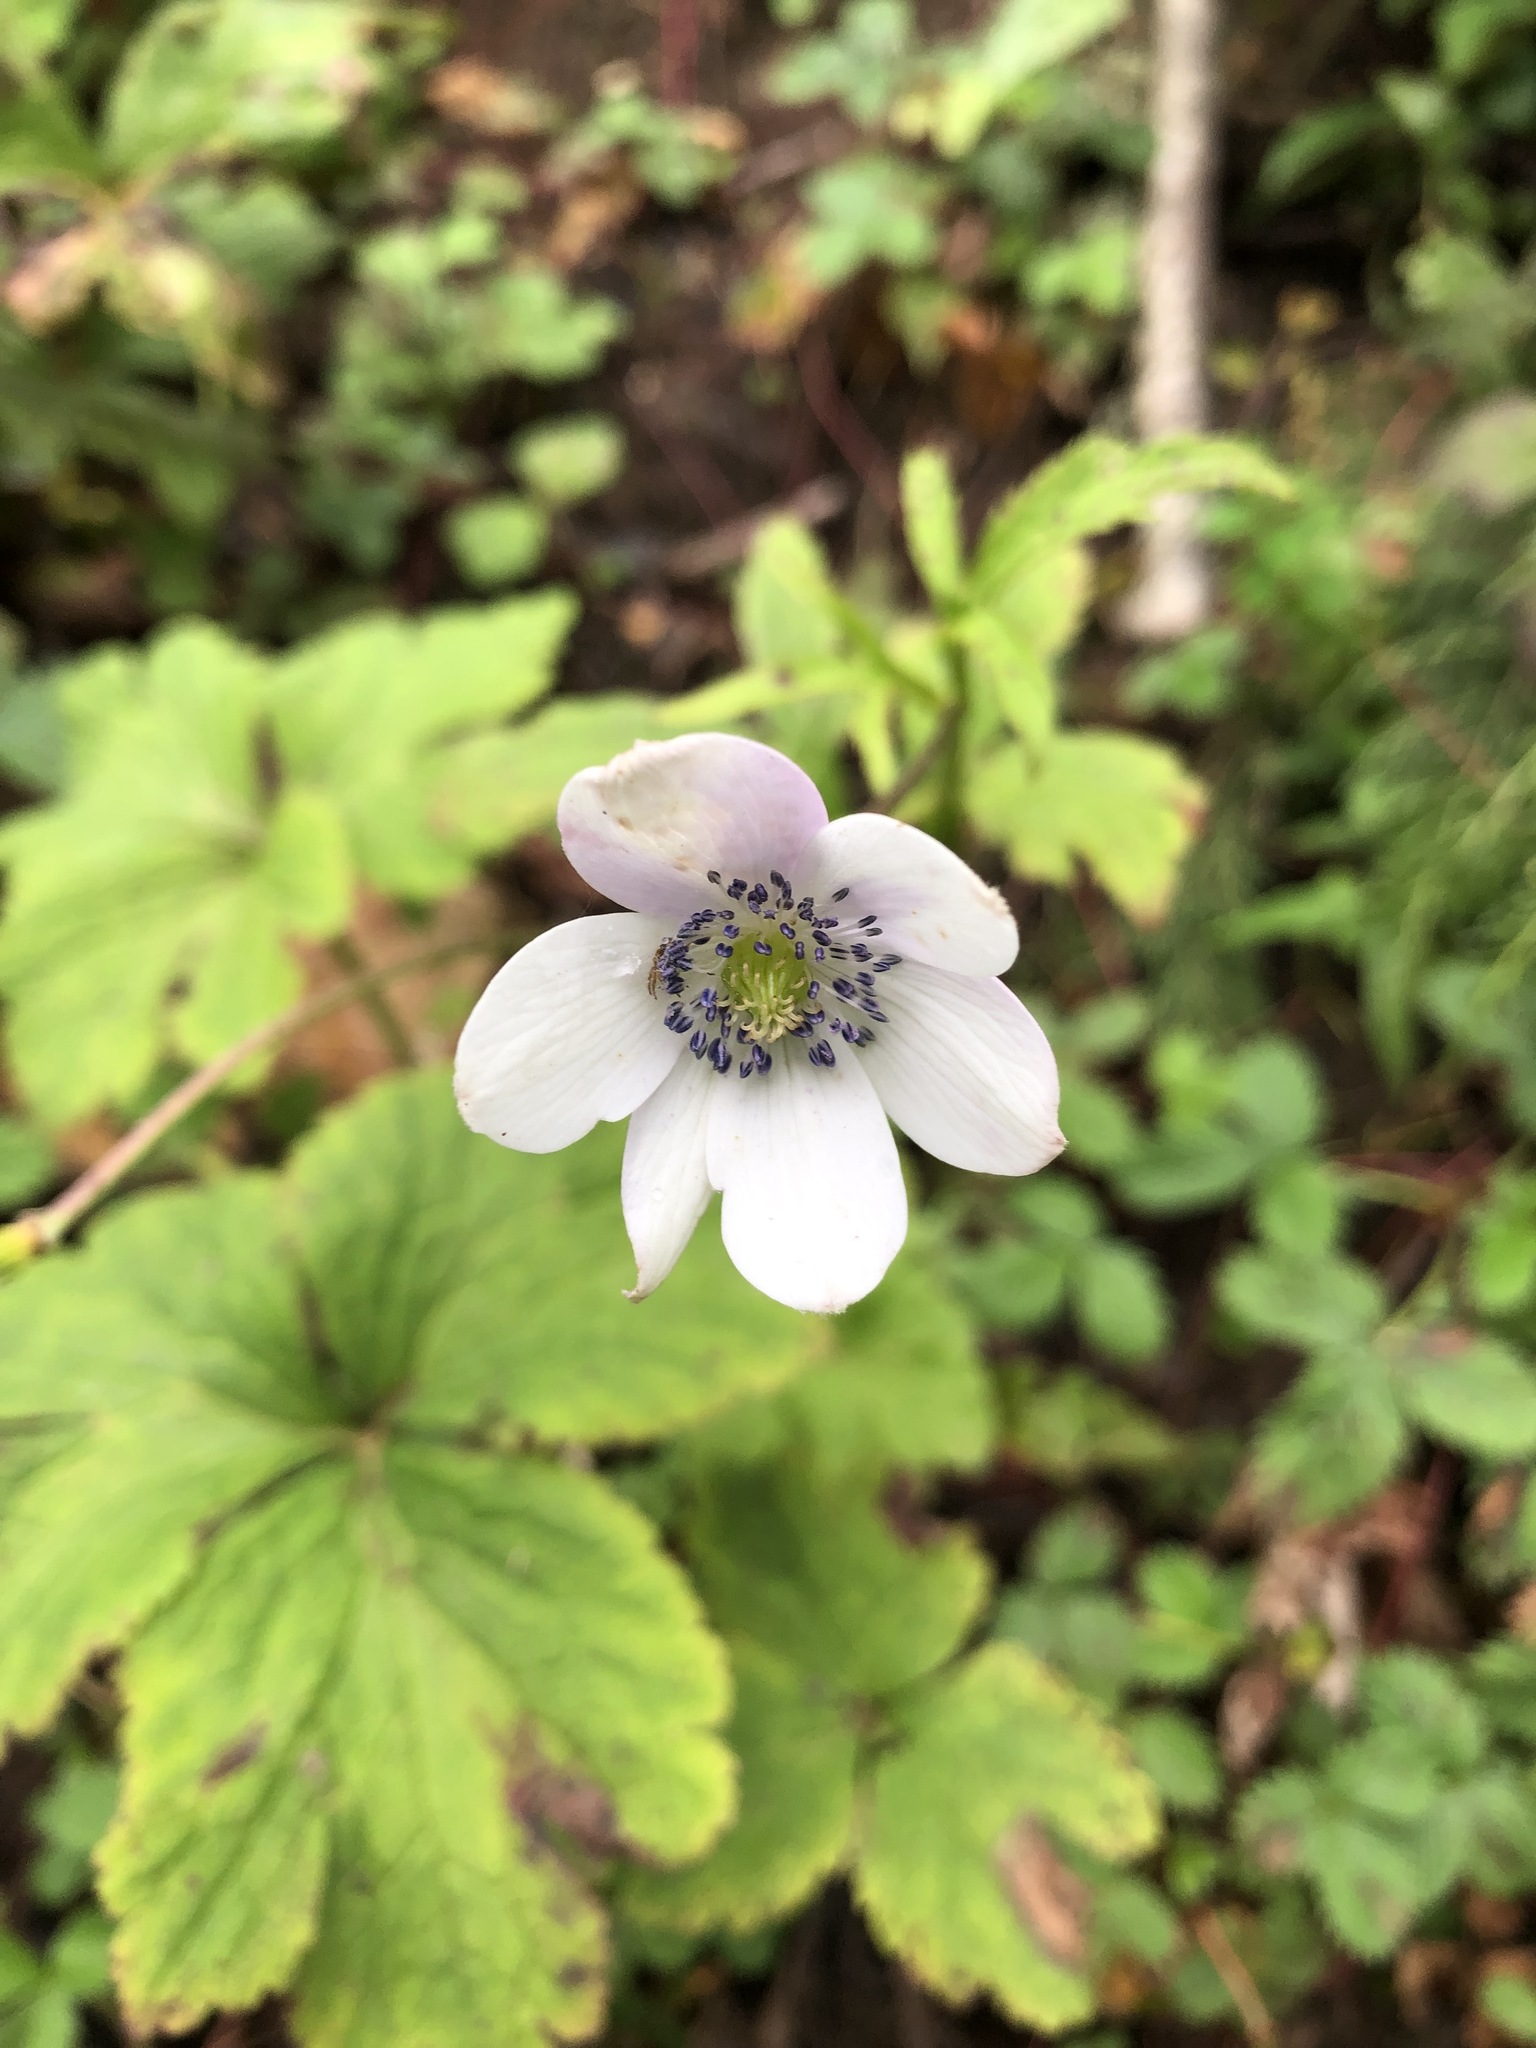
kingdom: Plantae
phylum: Tracheophyta
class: Magnoliopsida
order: Ranunculales
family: Ranunculaceae
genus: Eriocapitella
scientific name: Eriocapitella rivularis
